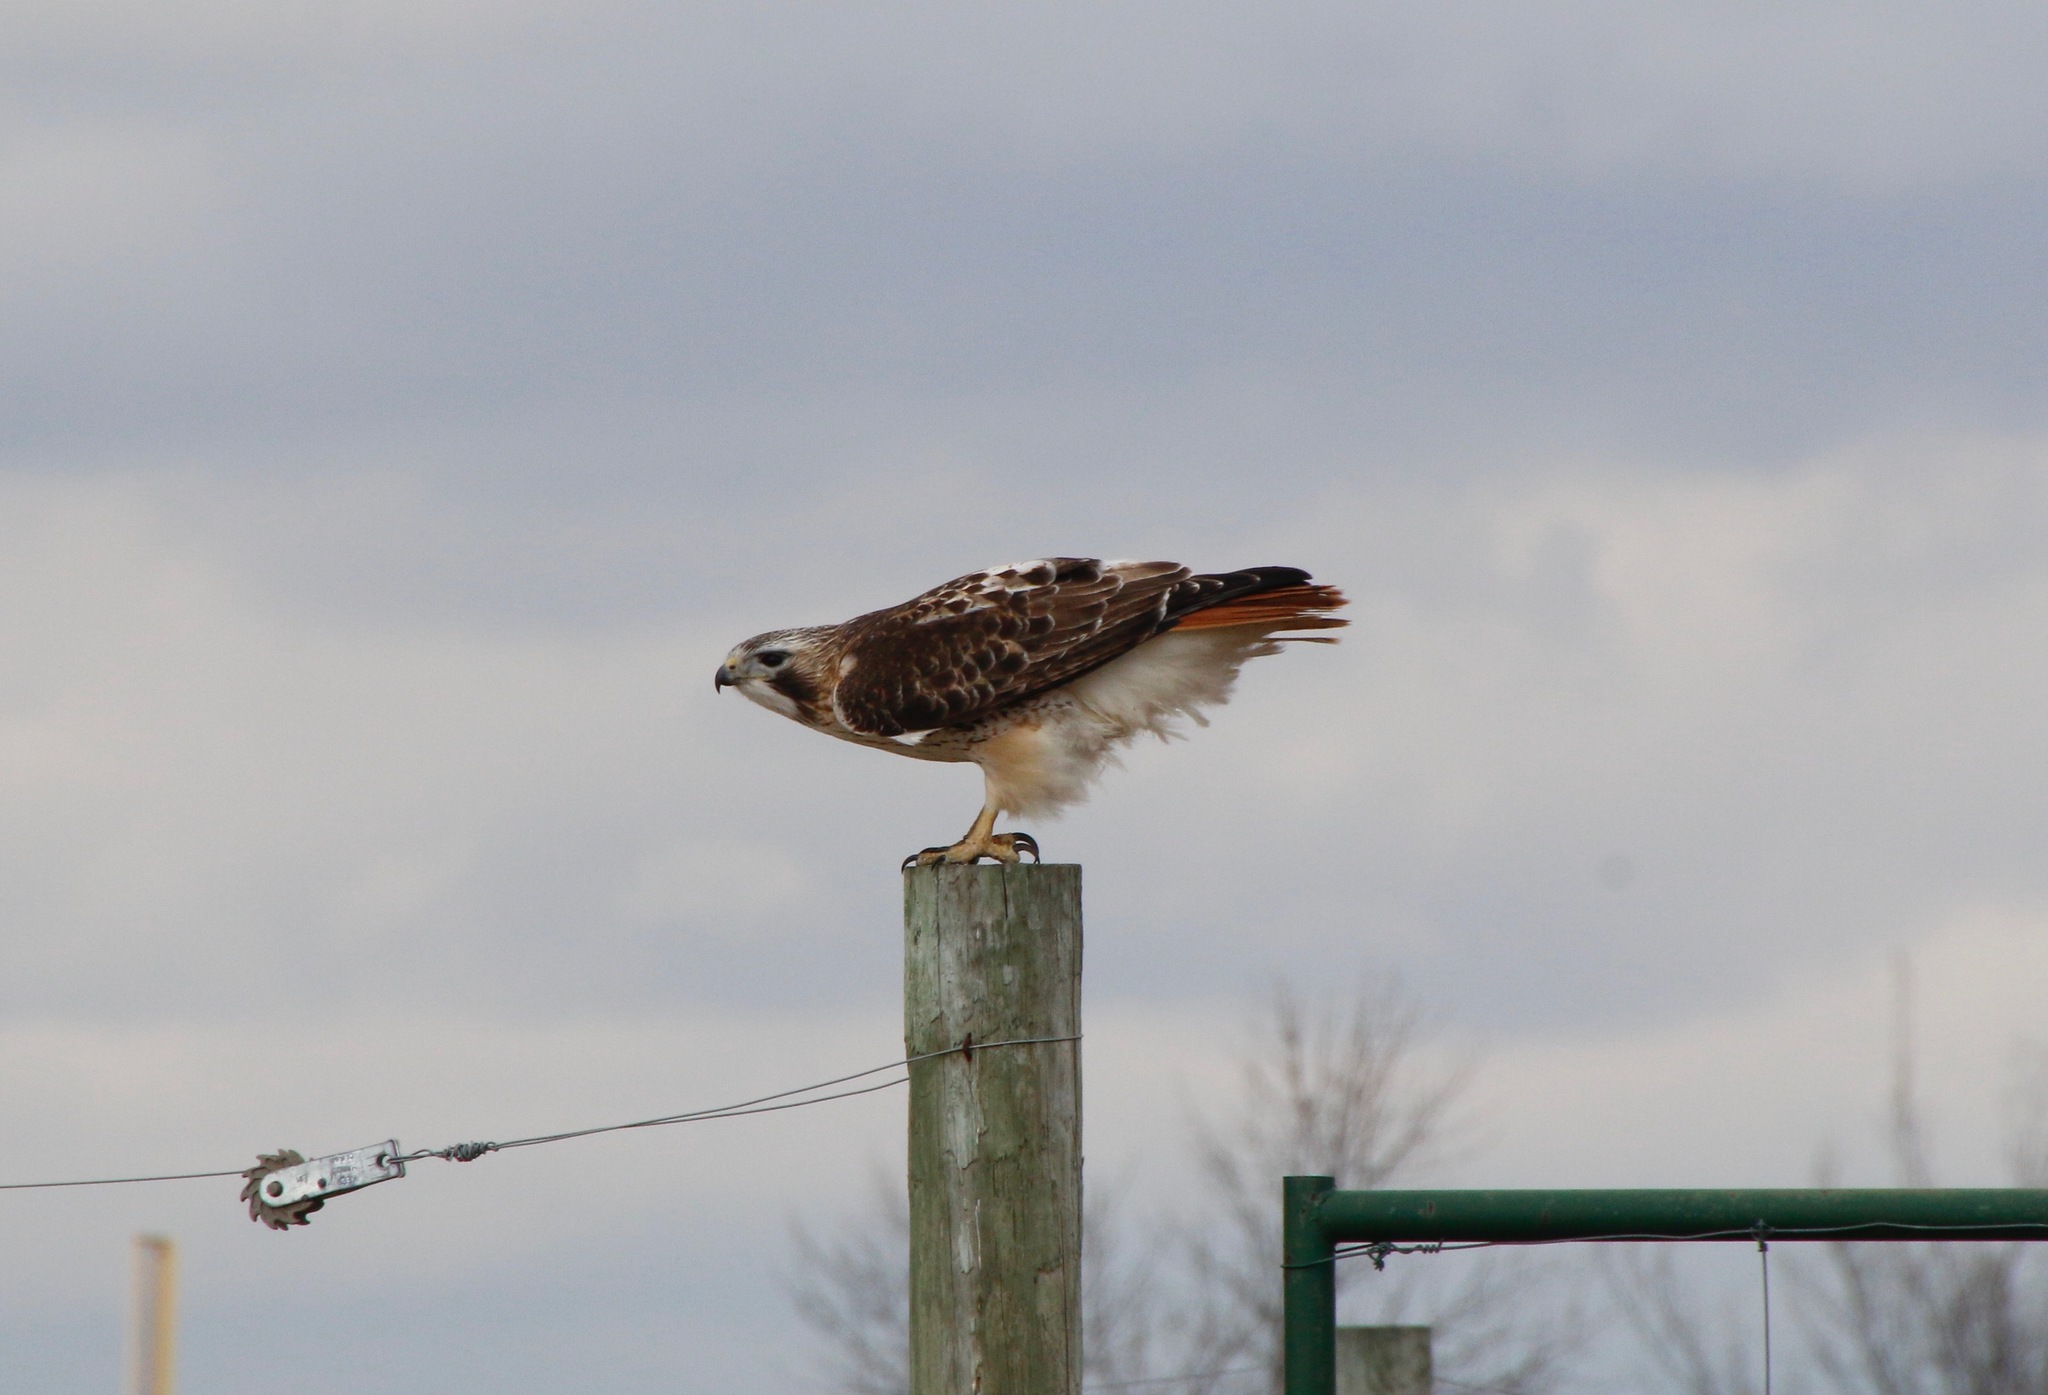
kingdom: Animalia
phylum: Chordata
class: Aves
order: Accipitriformes
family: Accipitridae
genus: Buteo
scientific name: Buteo jamaicensis
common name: Red-tailed hawk
